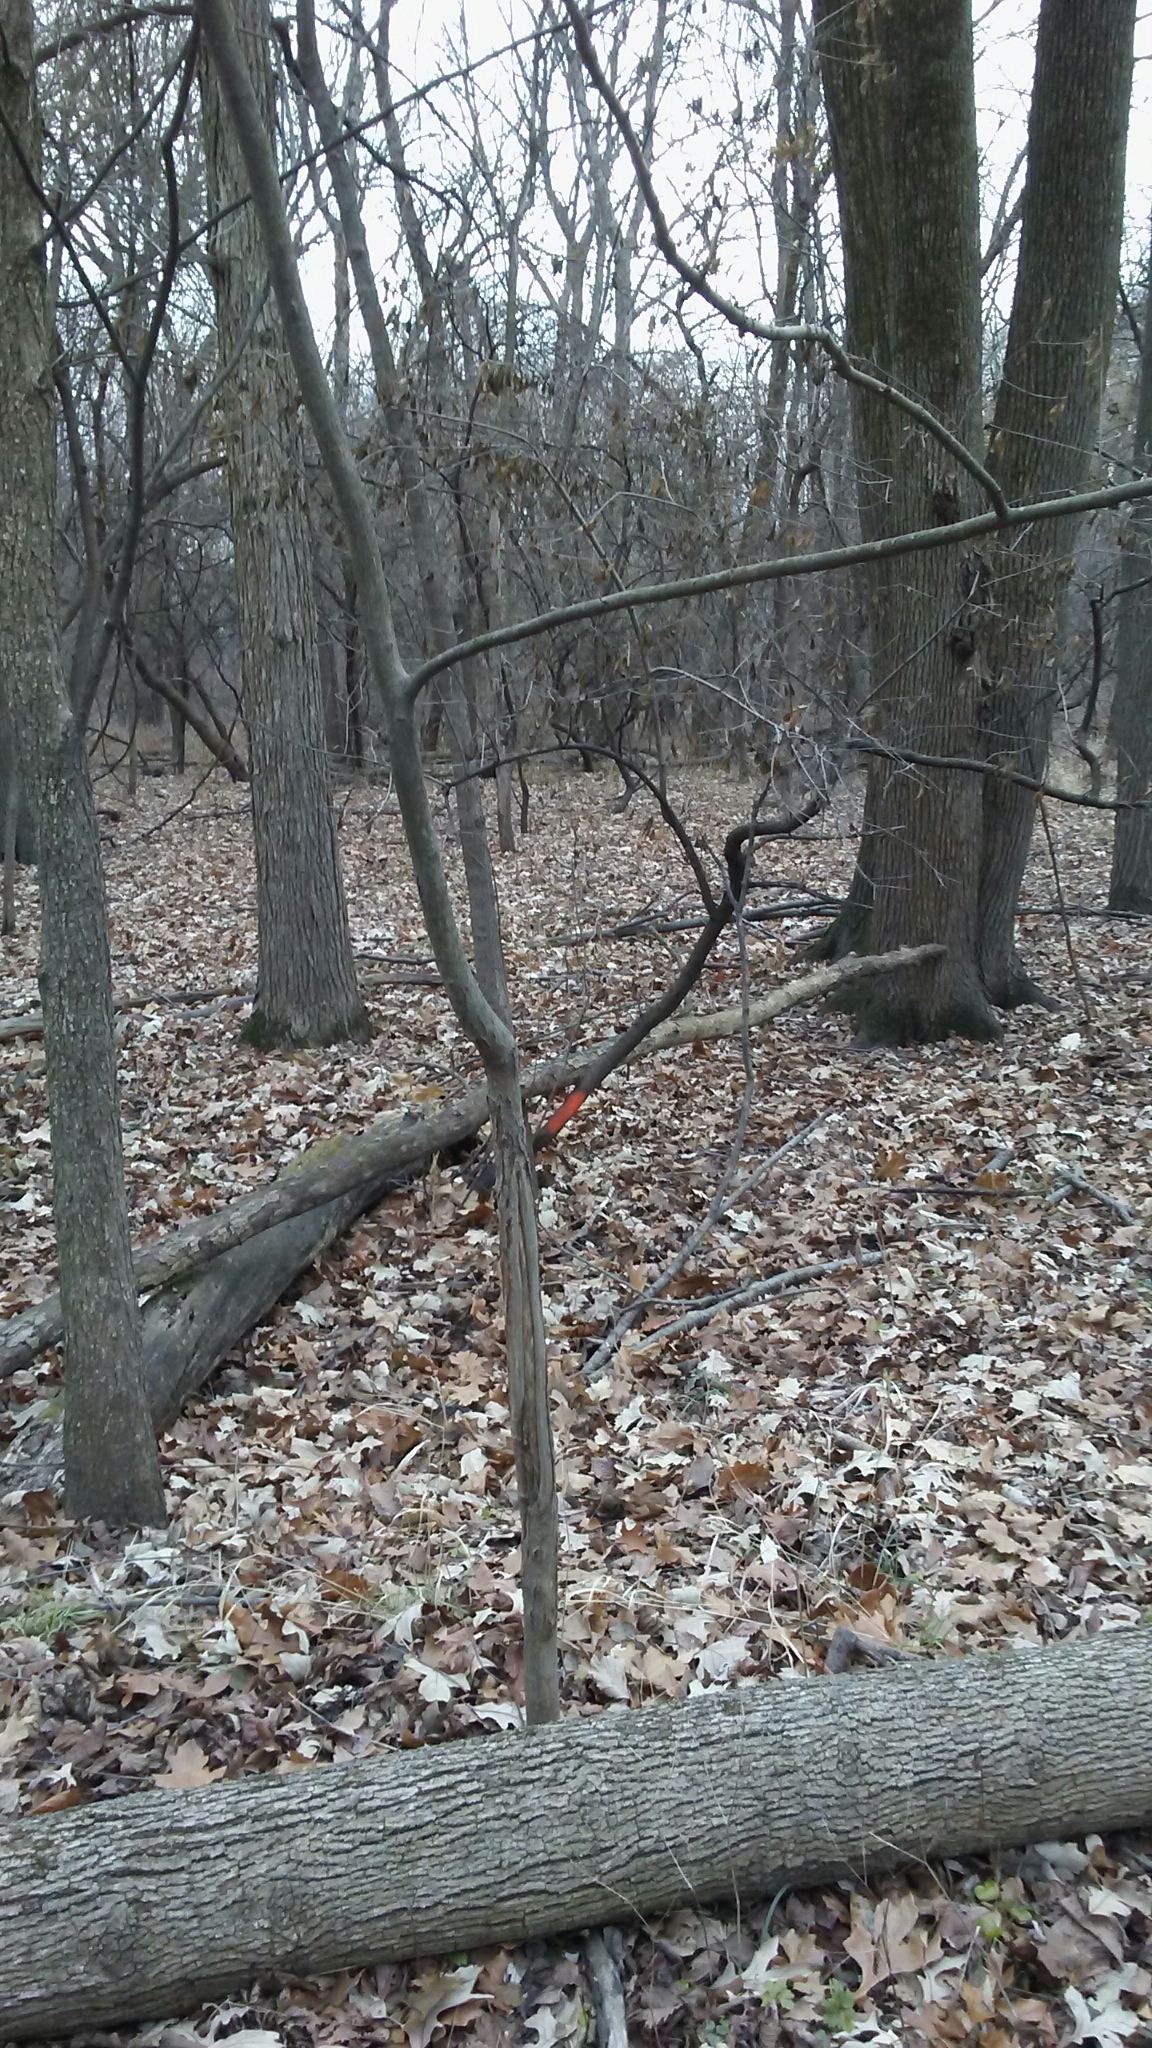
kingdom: Plantae
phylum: Tracheophyta
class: Magnoliopsida
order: Fagales
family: Juglandaceae
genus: Carya
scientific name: Carya cordiformis
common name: Bitternut hickory
